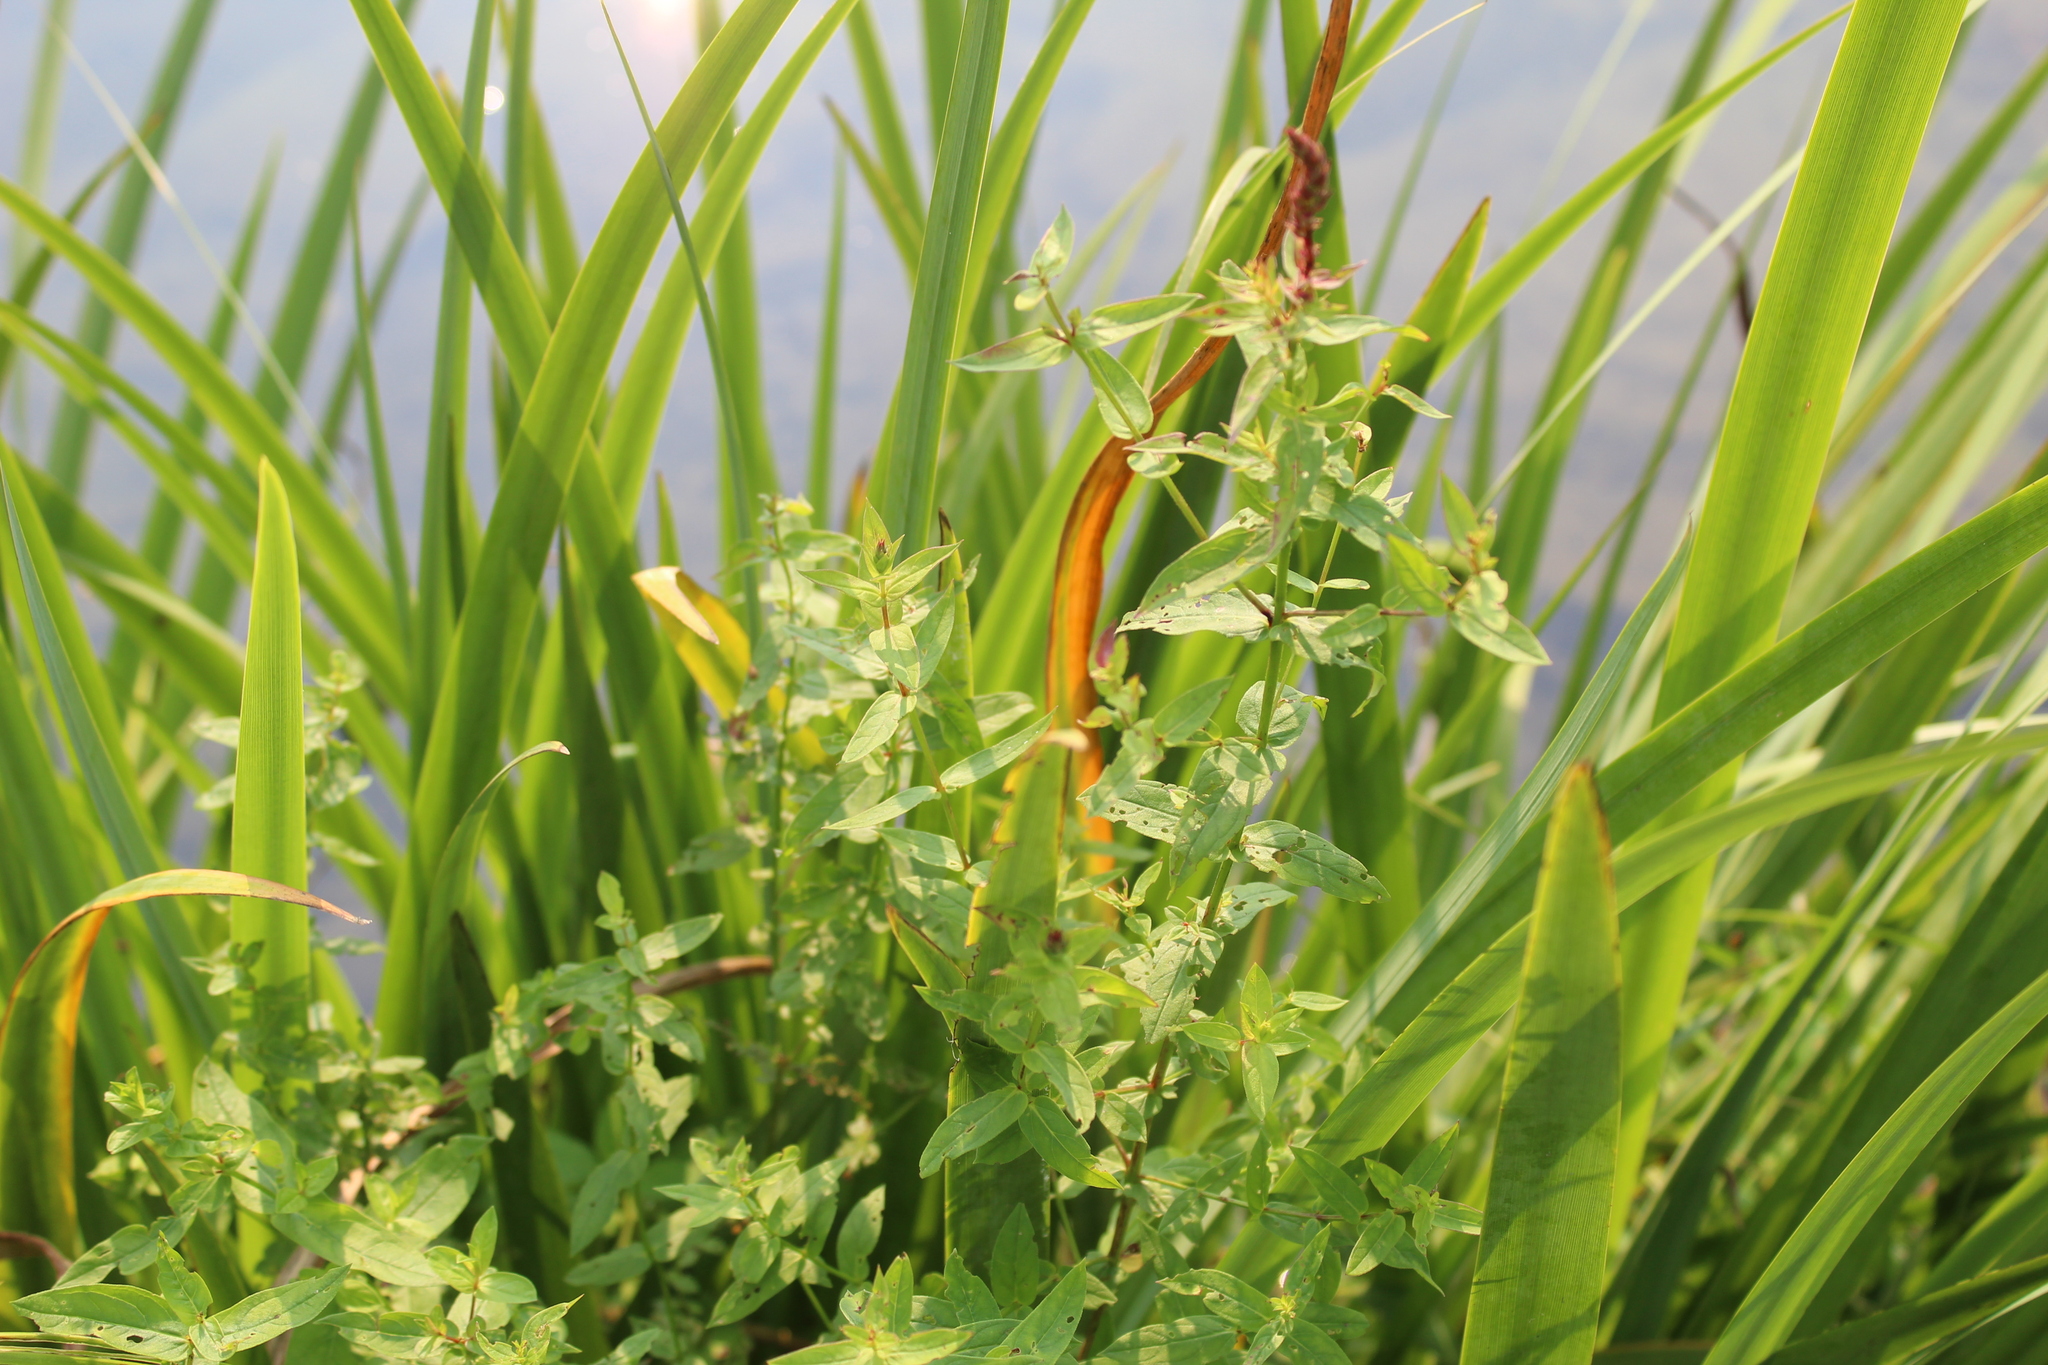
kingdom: Plantae
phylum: Tracheophyta
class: Magnoliopsida
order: Myrtales
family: Lythraceae
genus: Lythrum
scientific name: Lythrum salicaria
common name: Purple loosestrife
